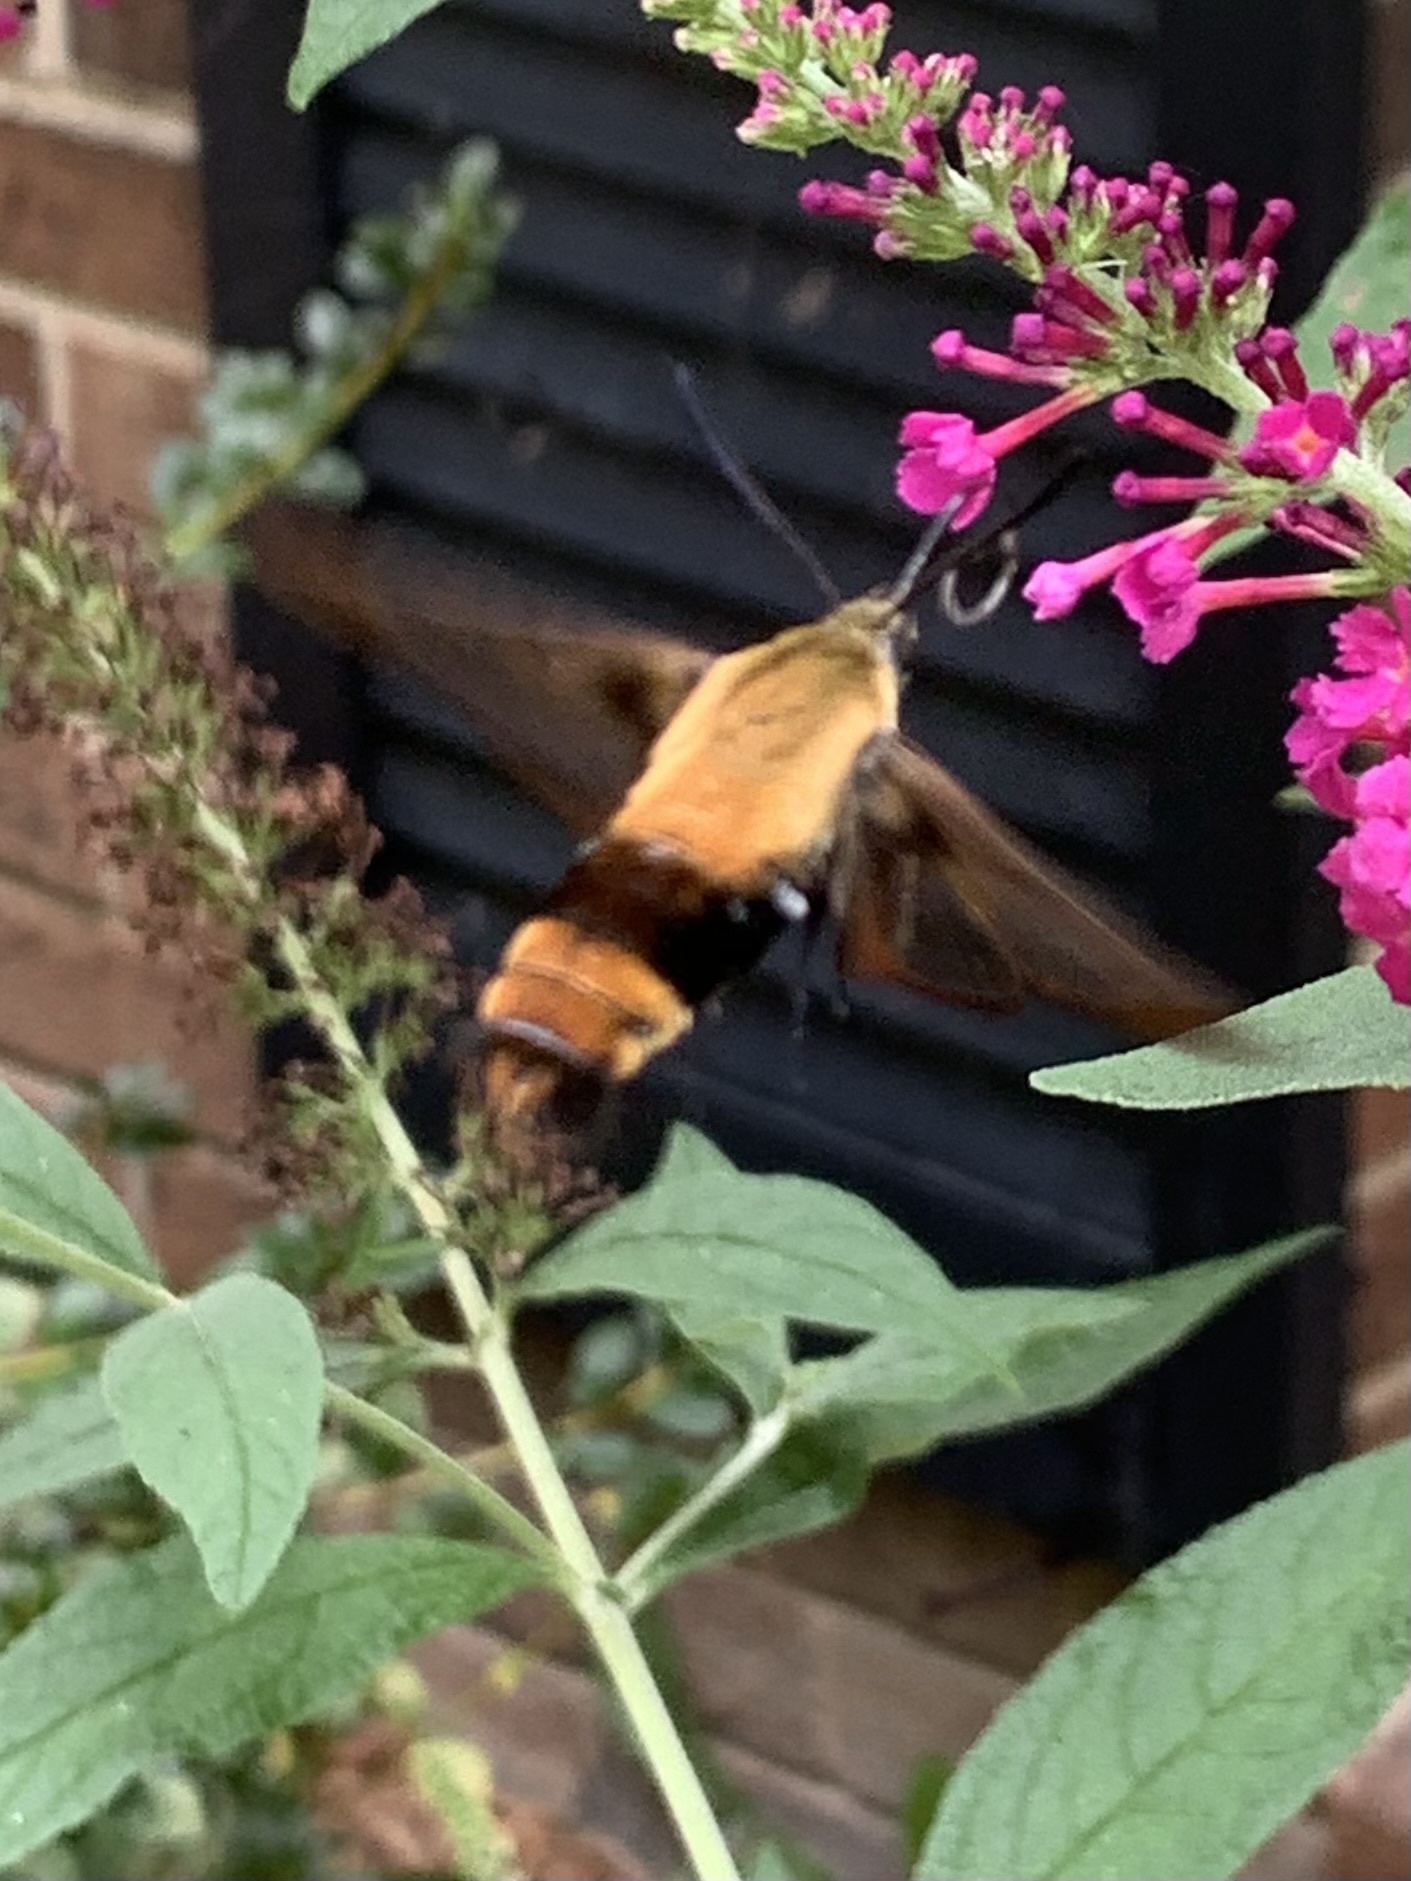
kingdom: Animalia
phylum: Arthropoda
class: Insecta
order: Lepidoptera
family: Sphingidae
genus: Hemaris
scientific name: Hemaris diffinis
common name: Bumblebee moth
